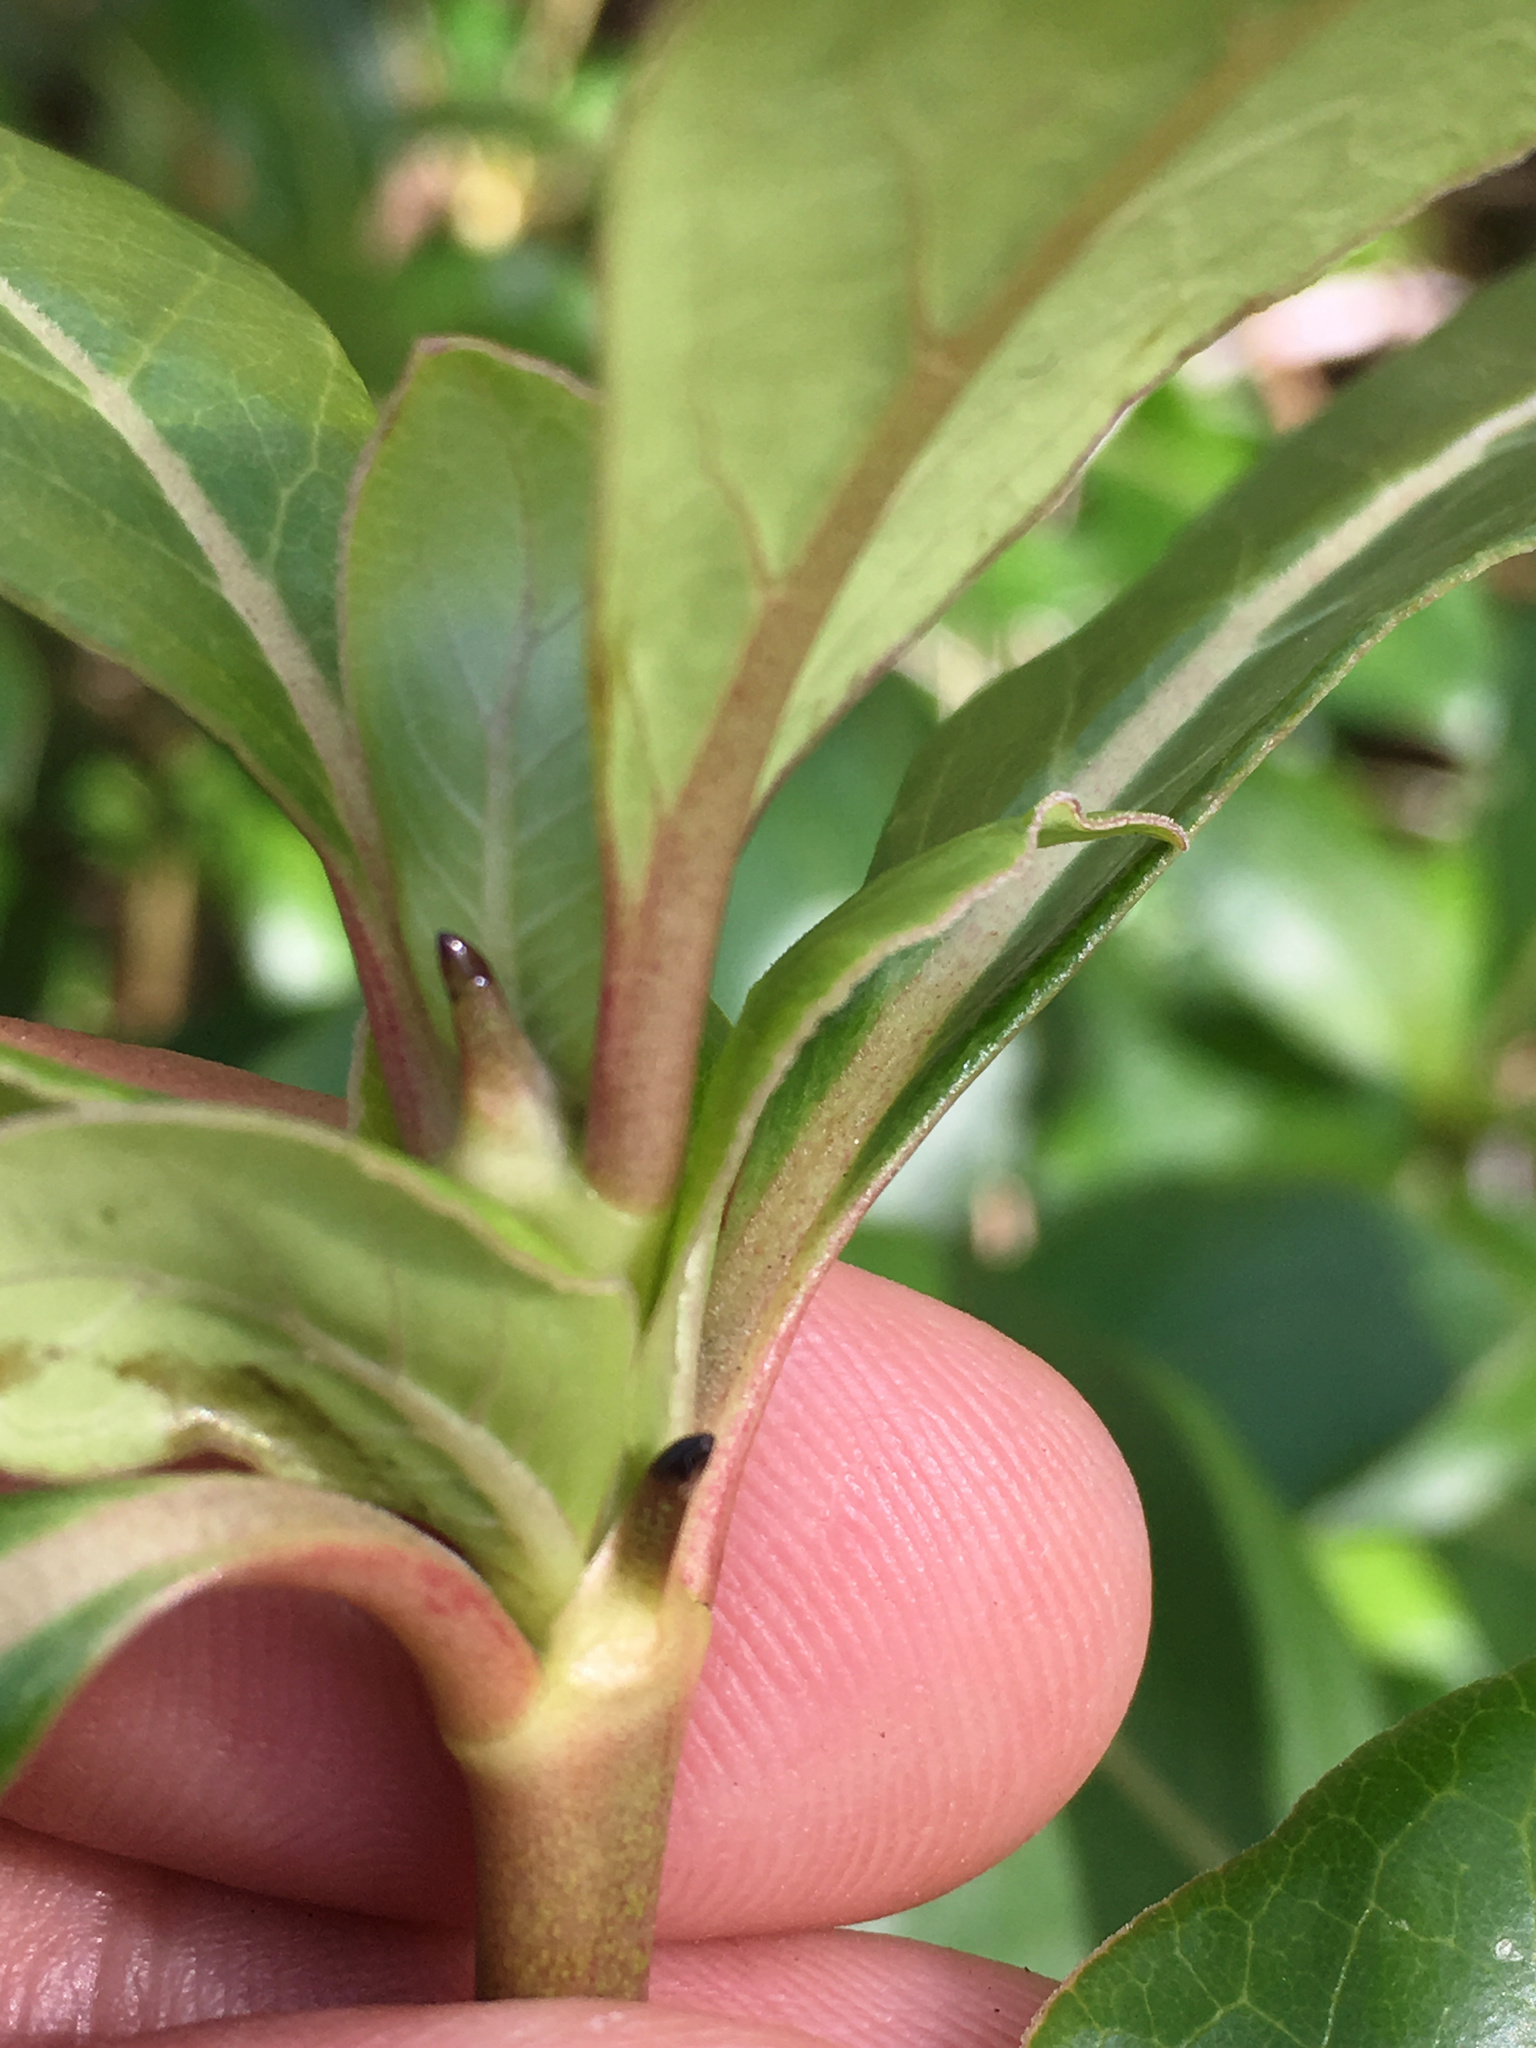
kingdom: Plantae
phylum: Tracheophyta
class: Magnoliopsida
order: Gentianales
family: Rubiaceae
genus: Coprosma
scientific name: Coprosma robusta
